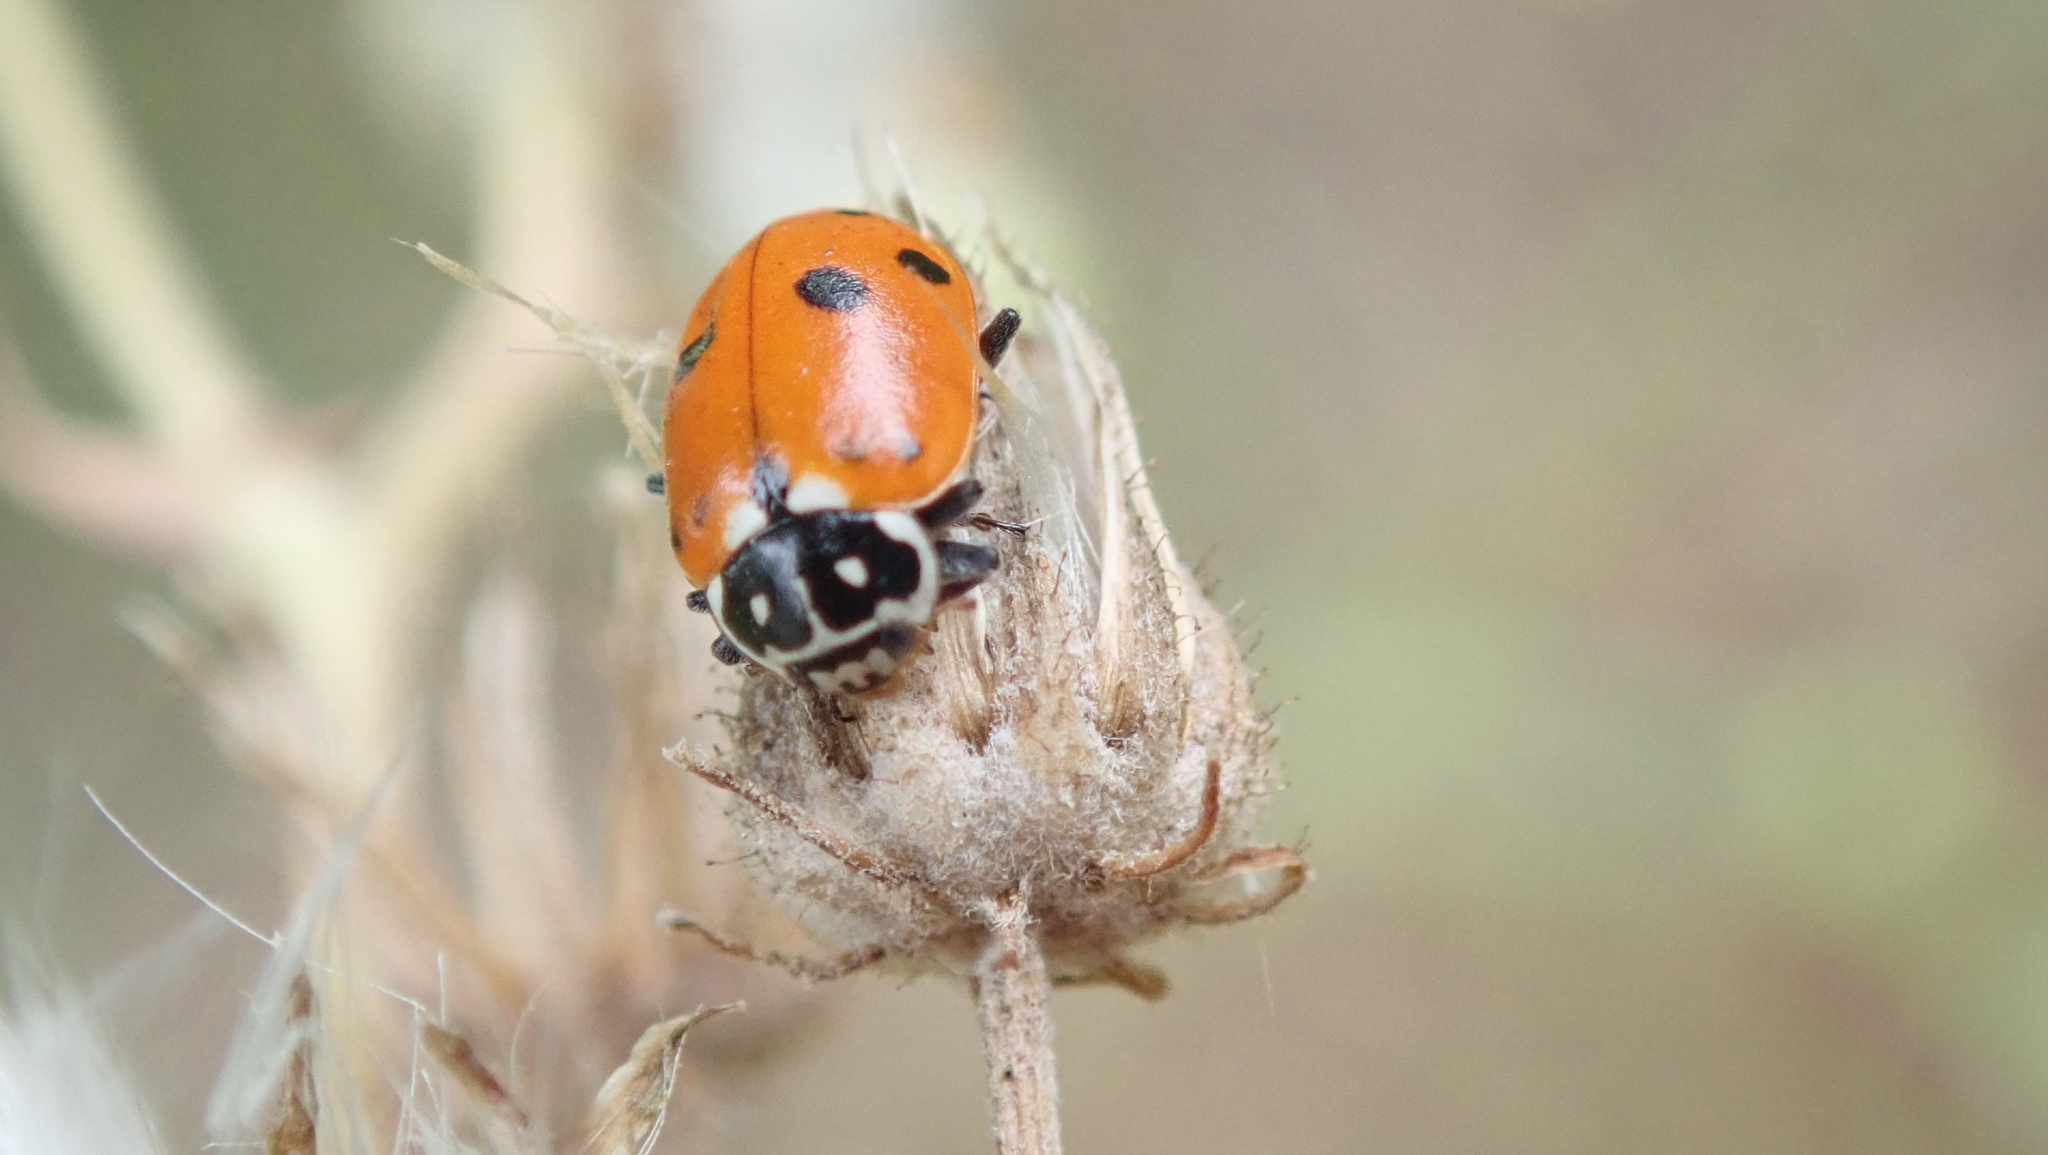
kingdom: Animalia
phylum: Arthropoda
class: Insecta
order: Coleoptera
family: Coccinellidae
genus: Hippodamia
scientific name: Hippodamia variegata
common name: Ladybird beetle
